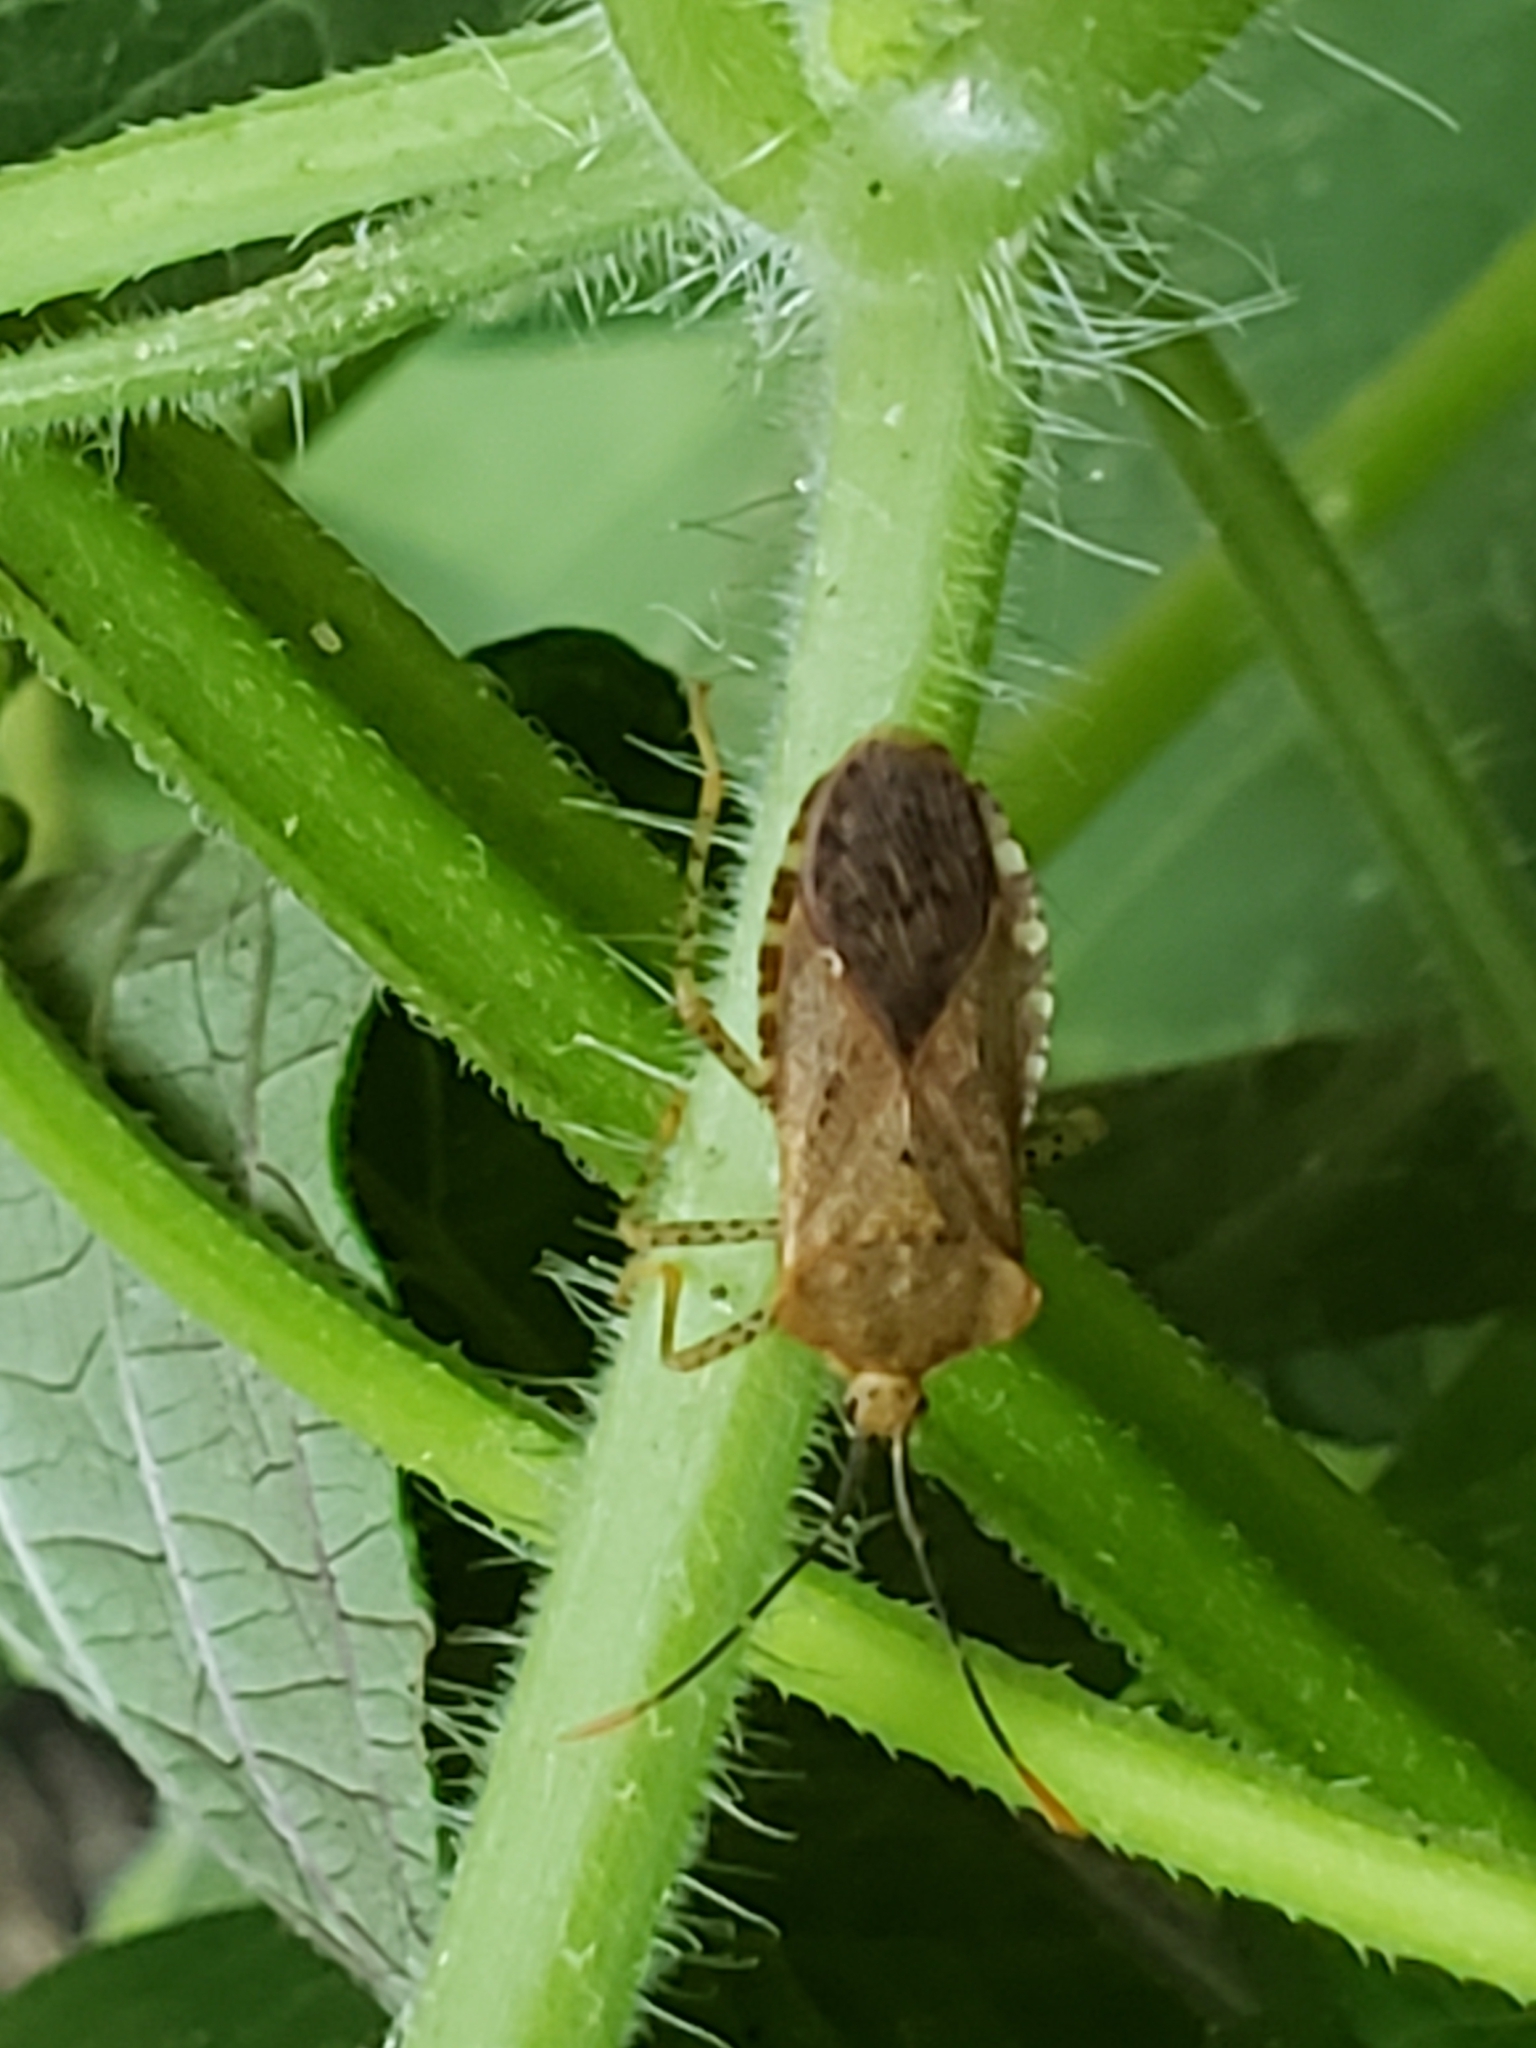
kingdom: Animalia
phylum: Arthropoda
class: Insecta
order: Hemiptera
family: Coreidae
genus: Anasa
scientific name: Anasa repetita
